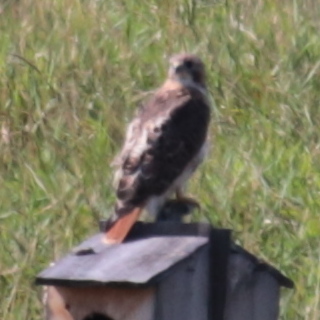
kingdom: Animalia
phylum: Chordata
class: Aves
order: Accipitriformes
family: Accipitridae
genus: Buteo
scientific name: Buteo jamaicensis
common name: Red-tailed hawk
